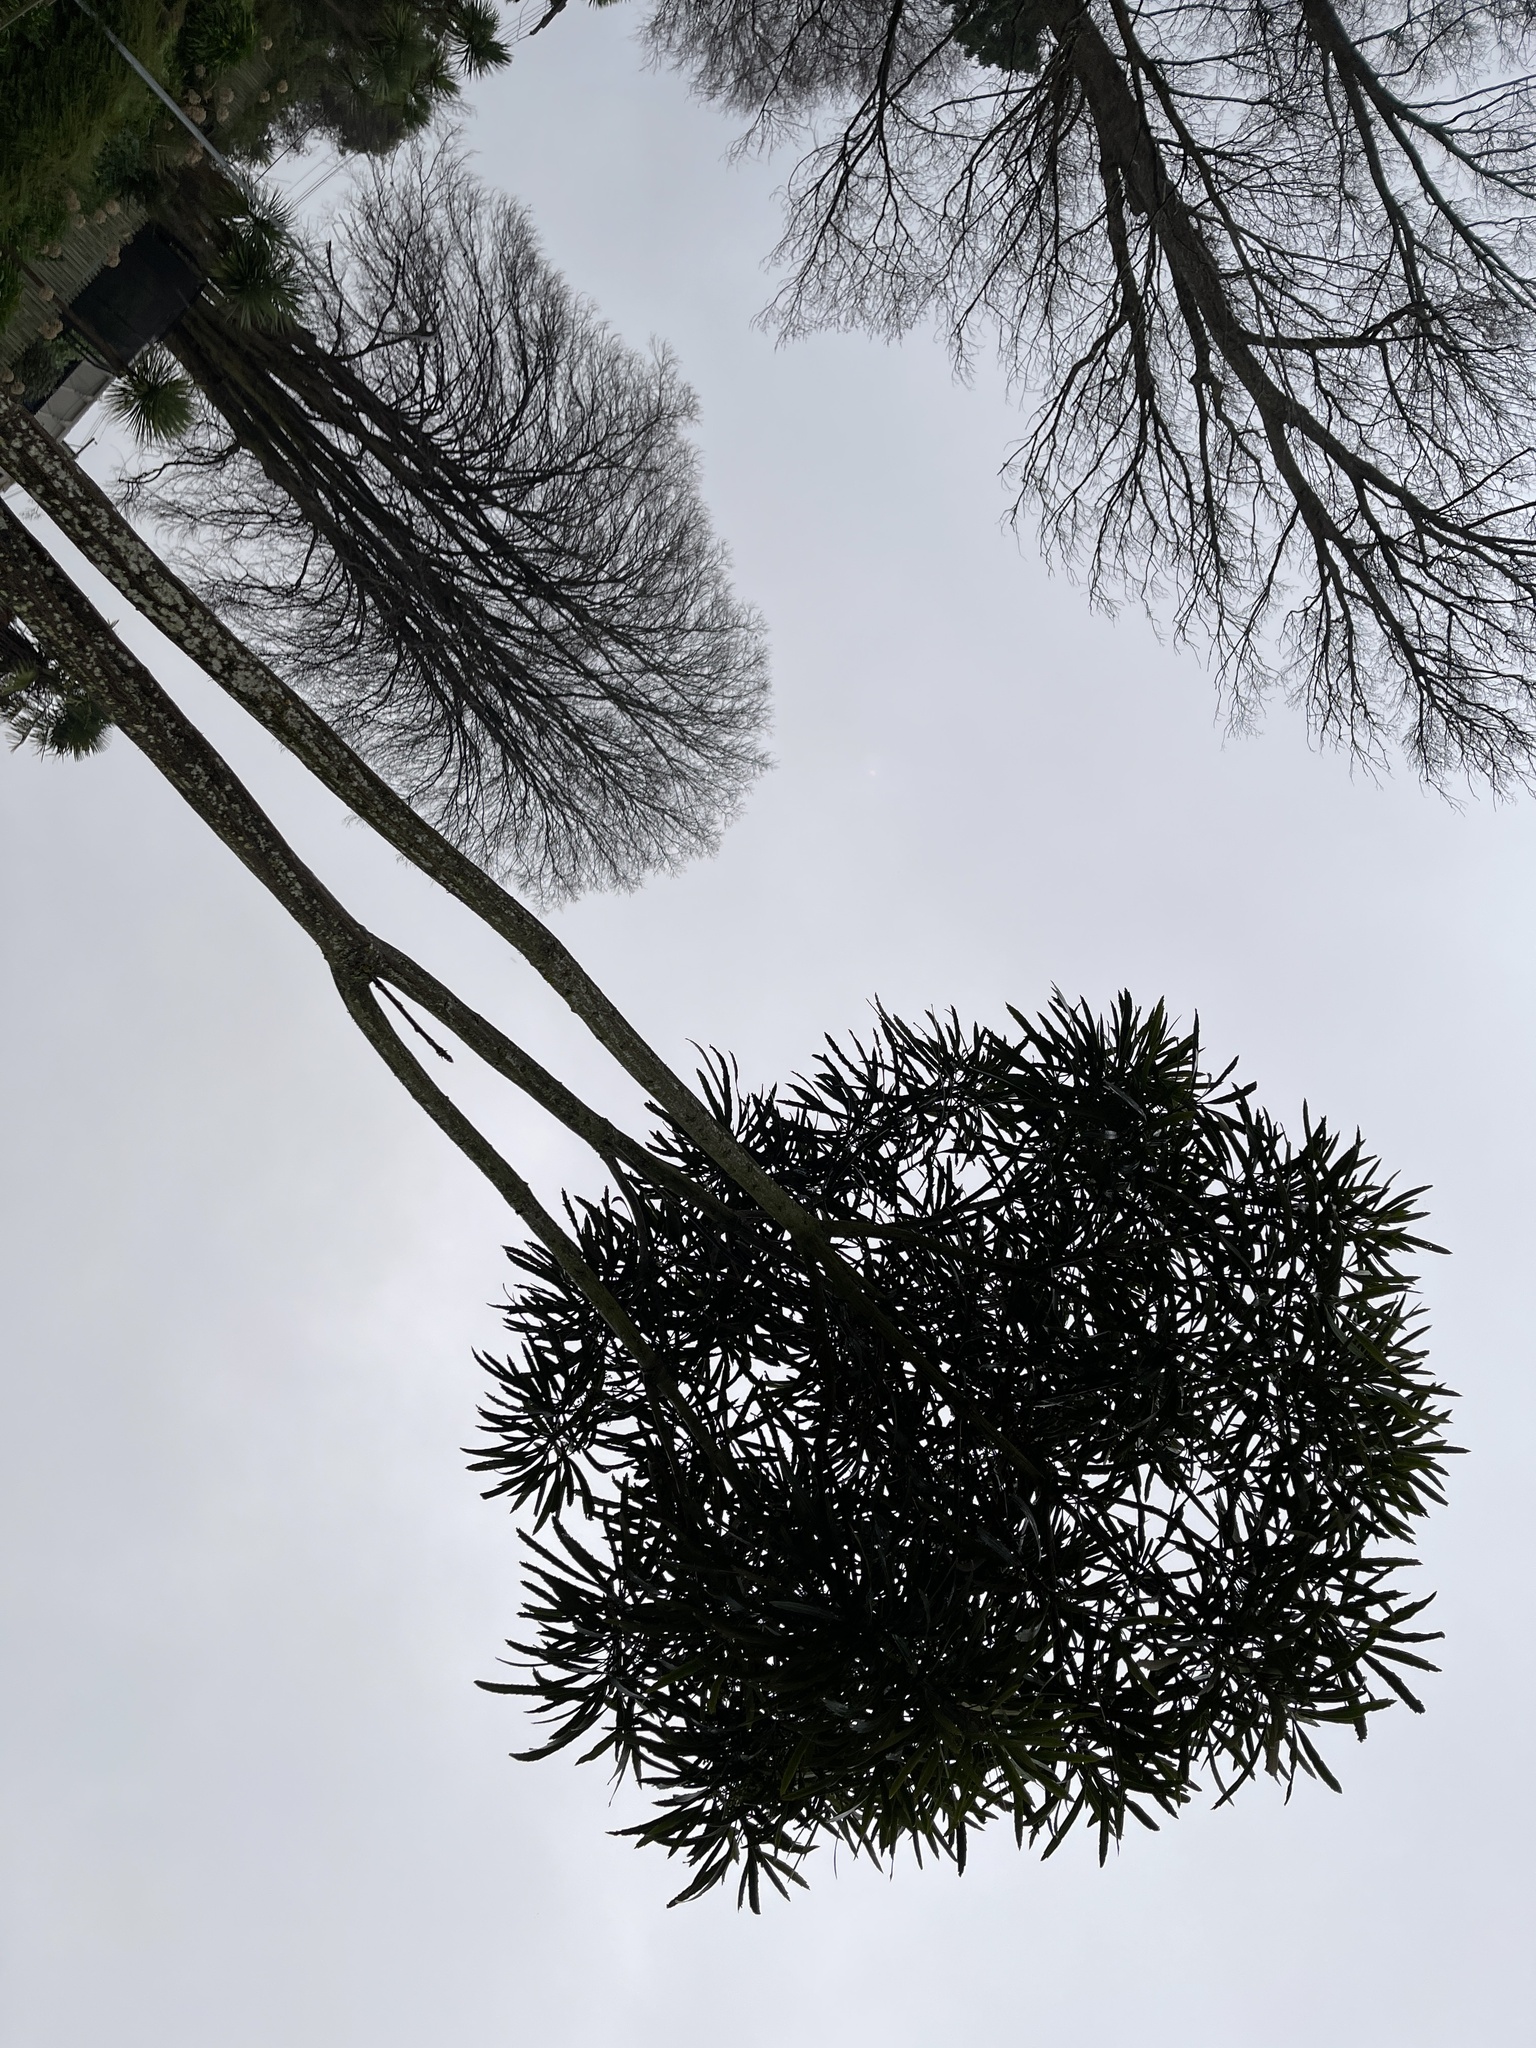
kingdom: Plantae
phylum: Tracheophyta
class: Magnoliopsida
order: Apiales
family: Araliaceae
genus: Pseudopanax
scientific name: Pseudopanax crassifolius
